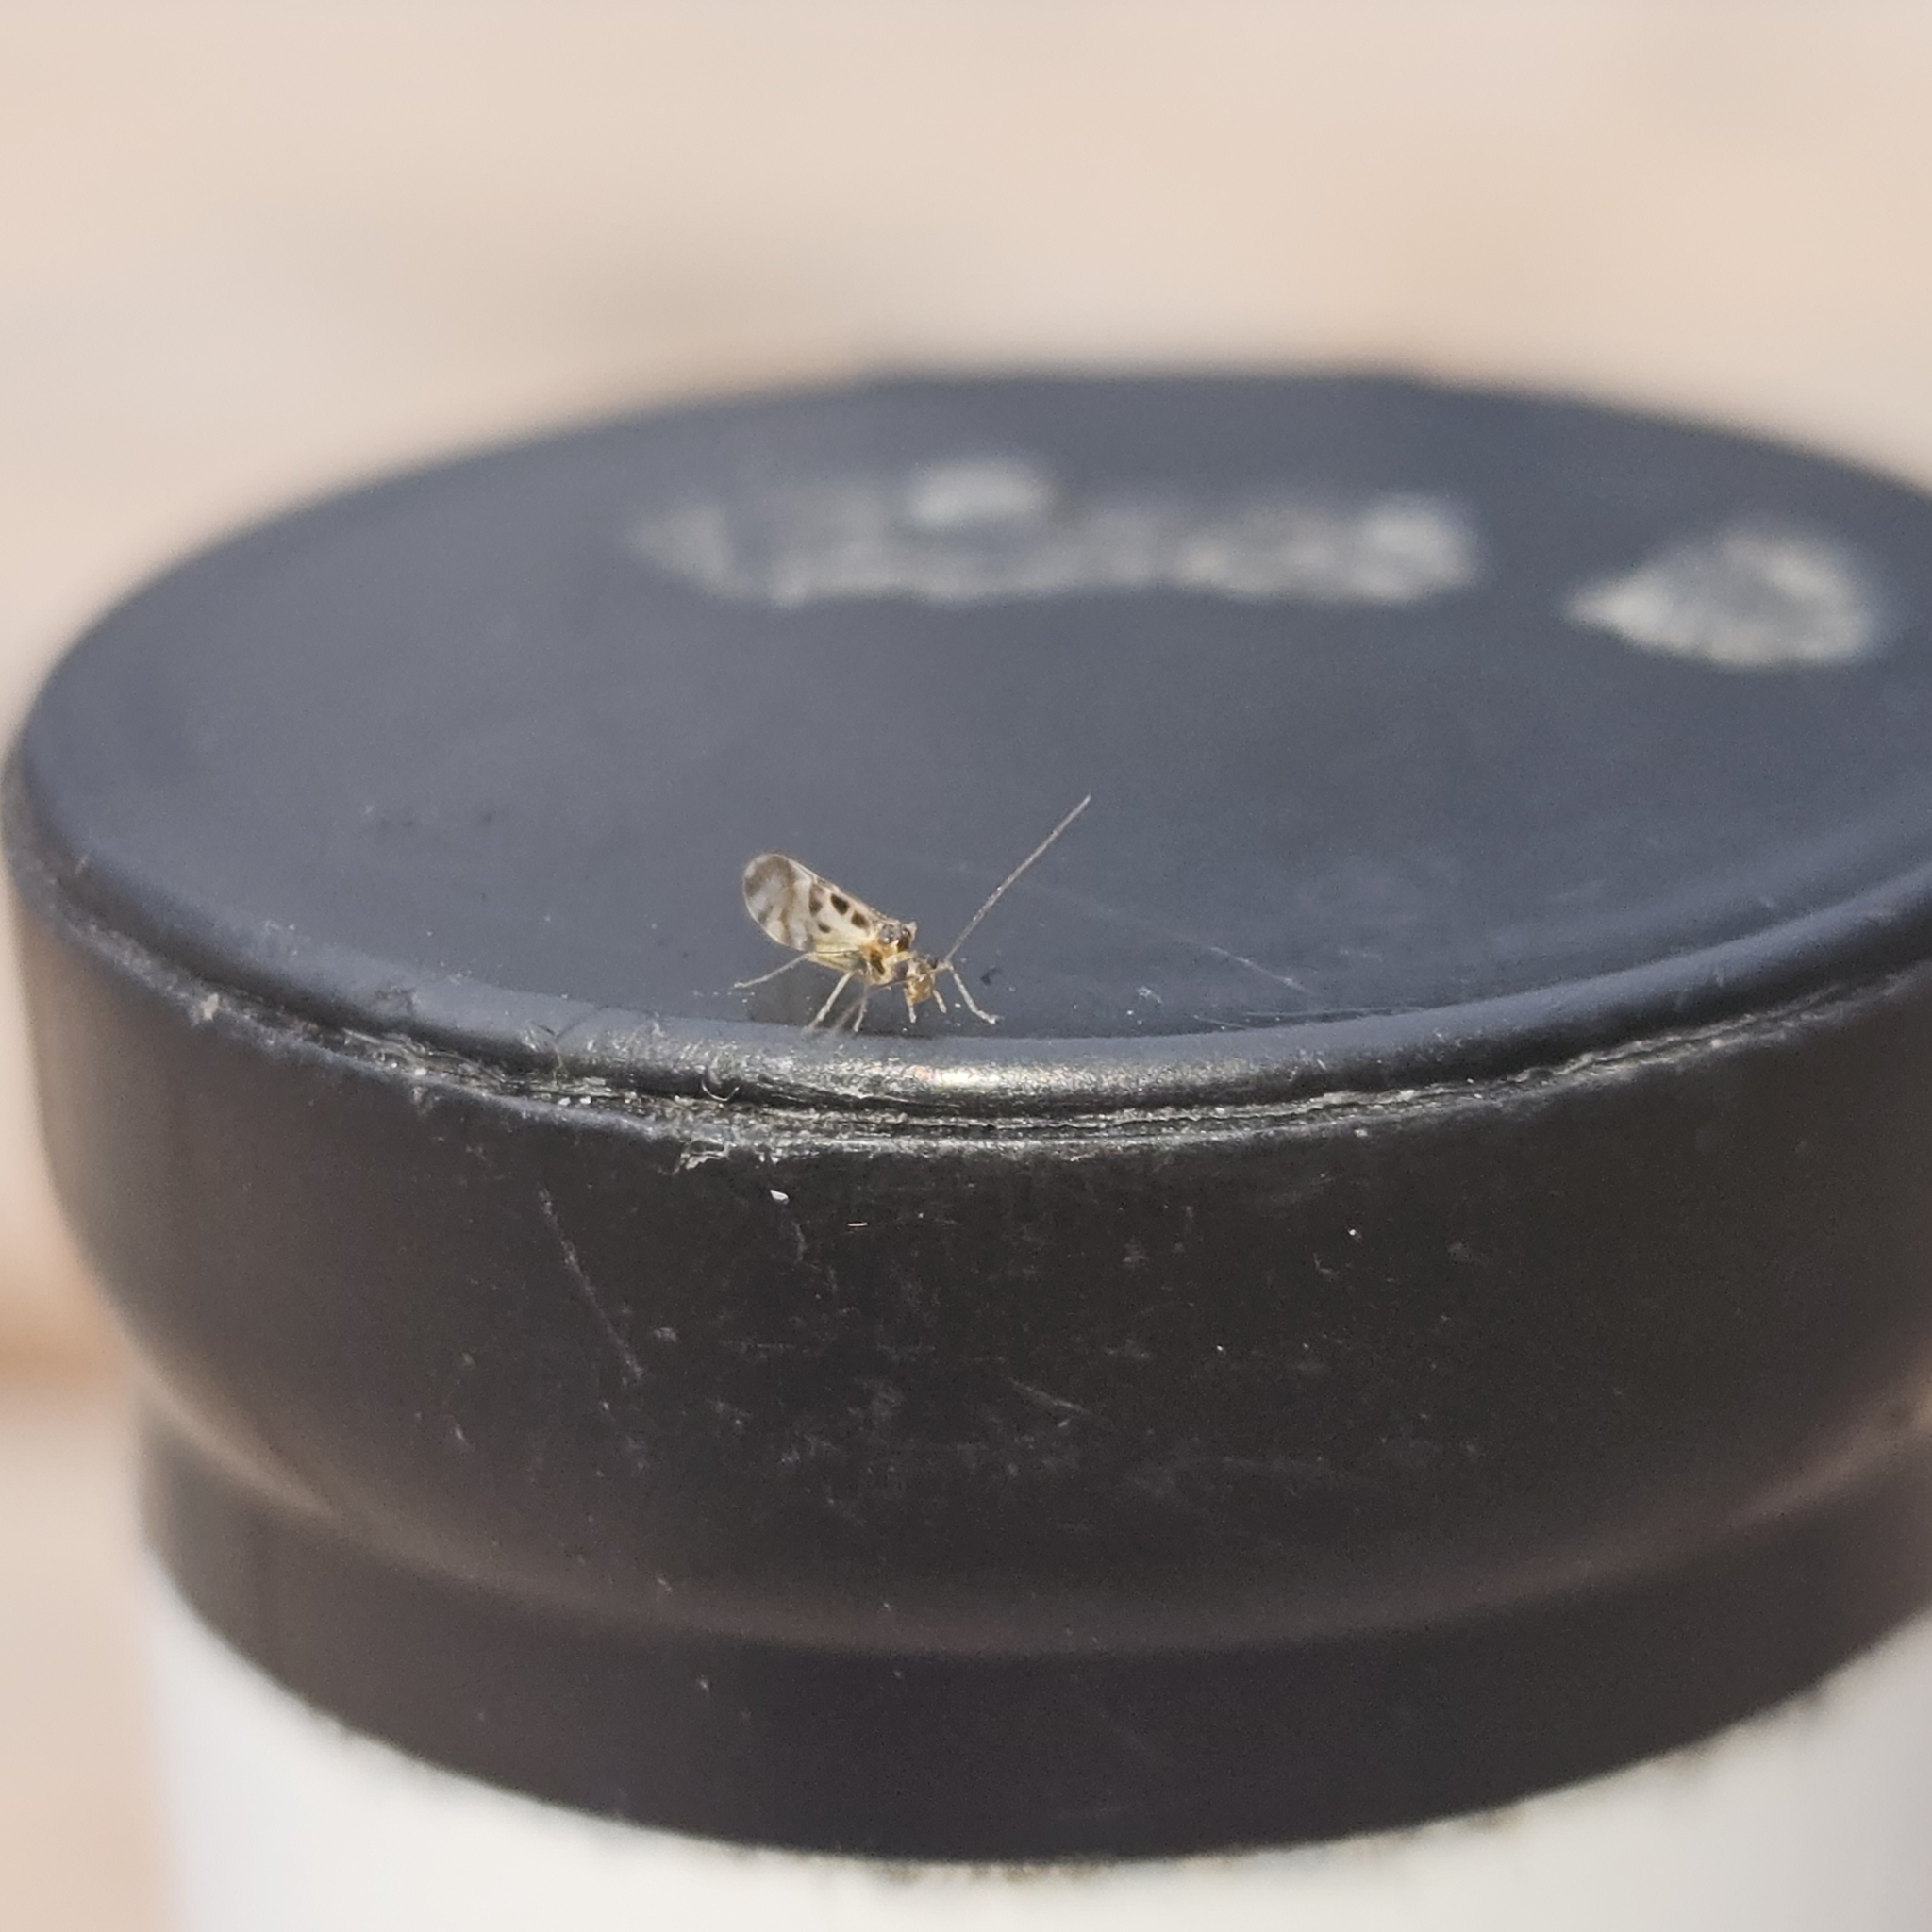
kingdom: Animalia
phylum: Arthropoda
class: Insecta
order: Psocodea
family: Stenopsocidae
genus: Graphopsocus
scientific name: Graphopsocus cruciatus
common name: Lizard bark louse
